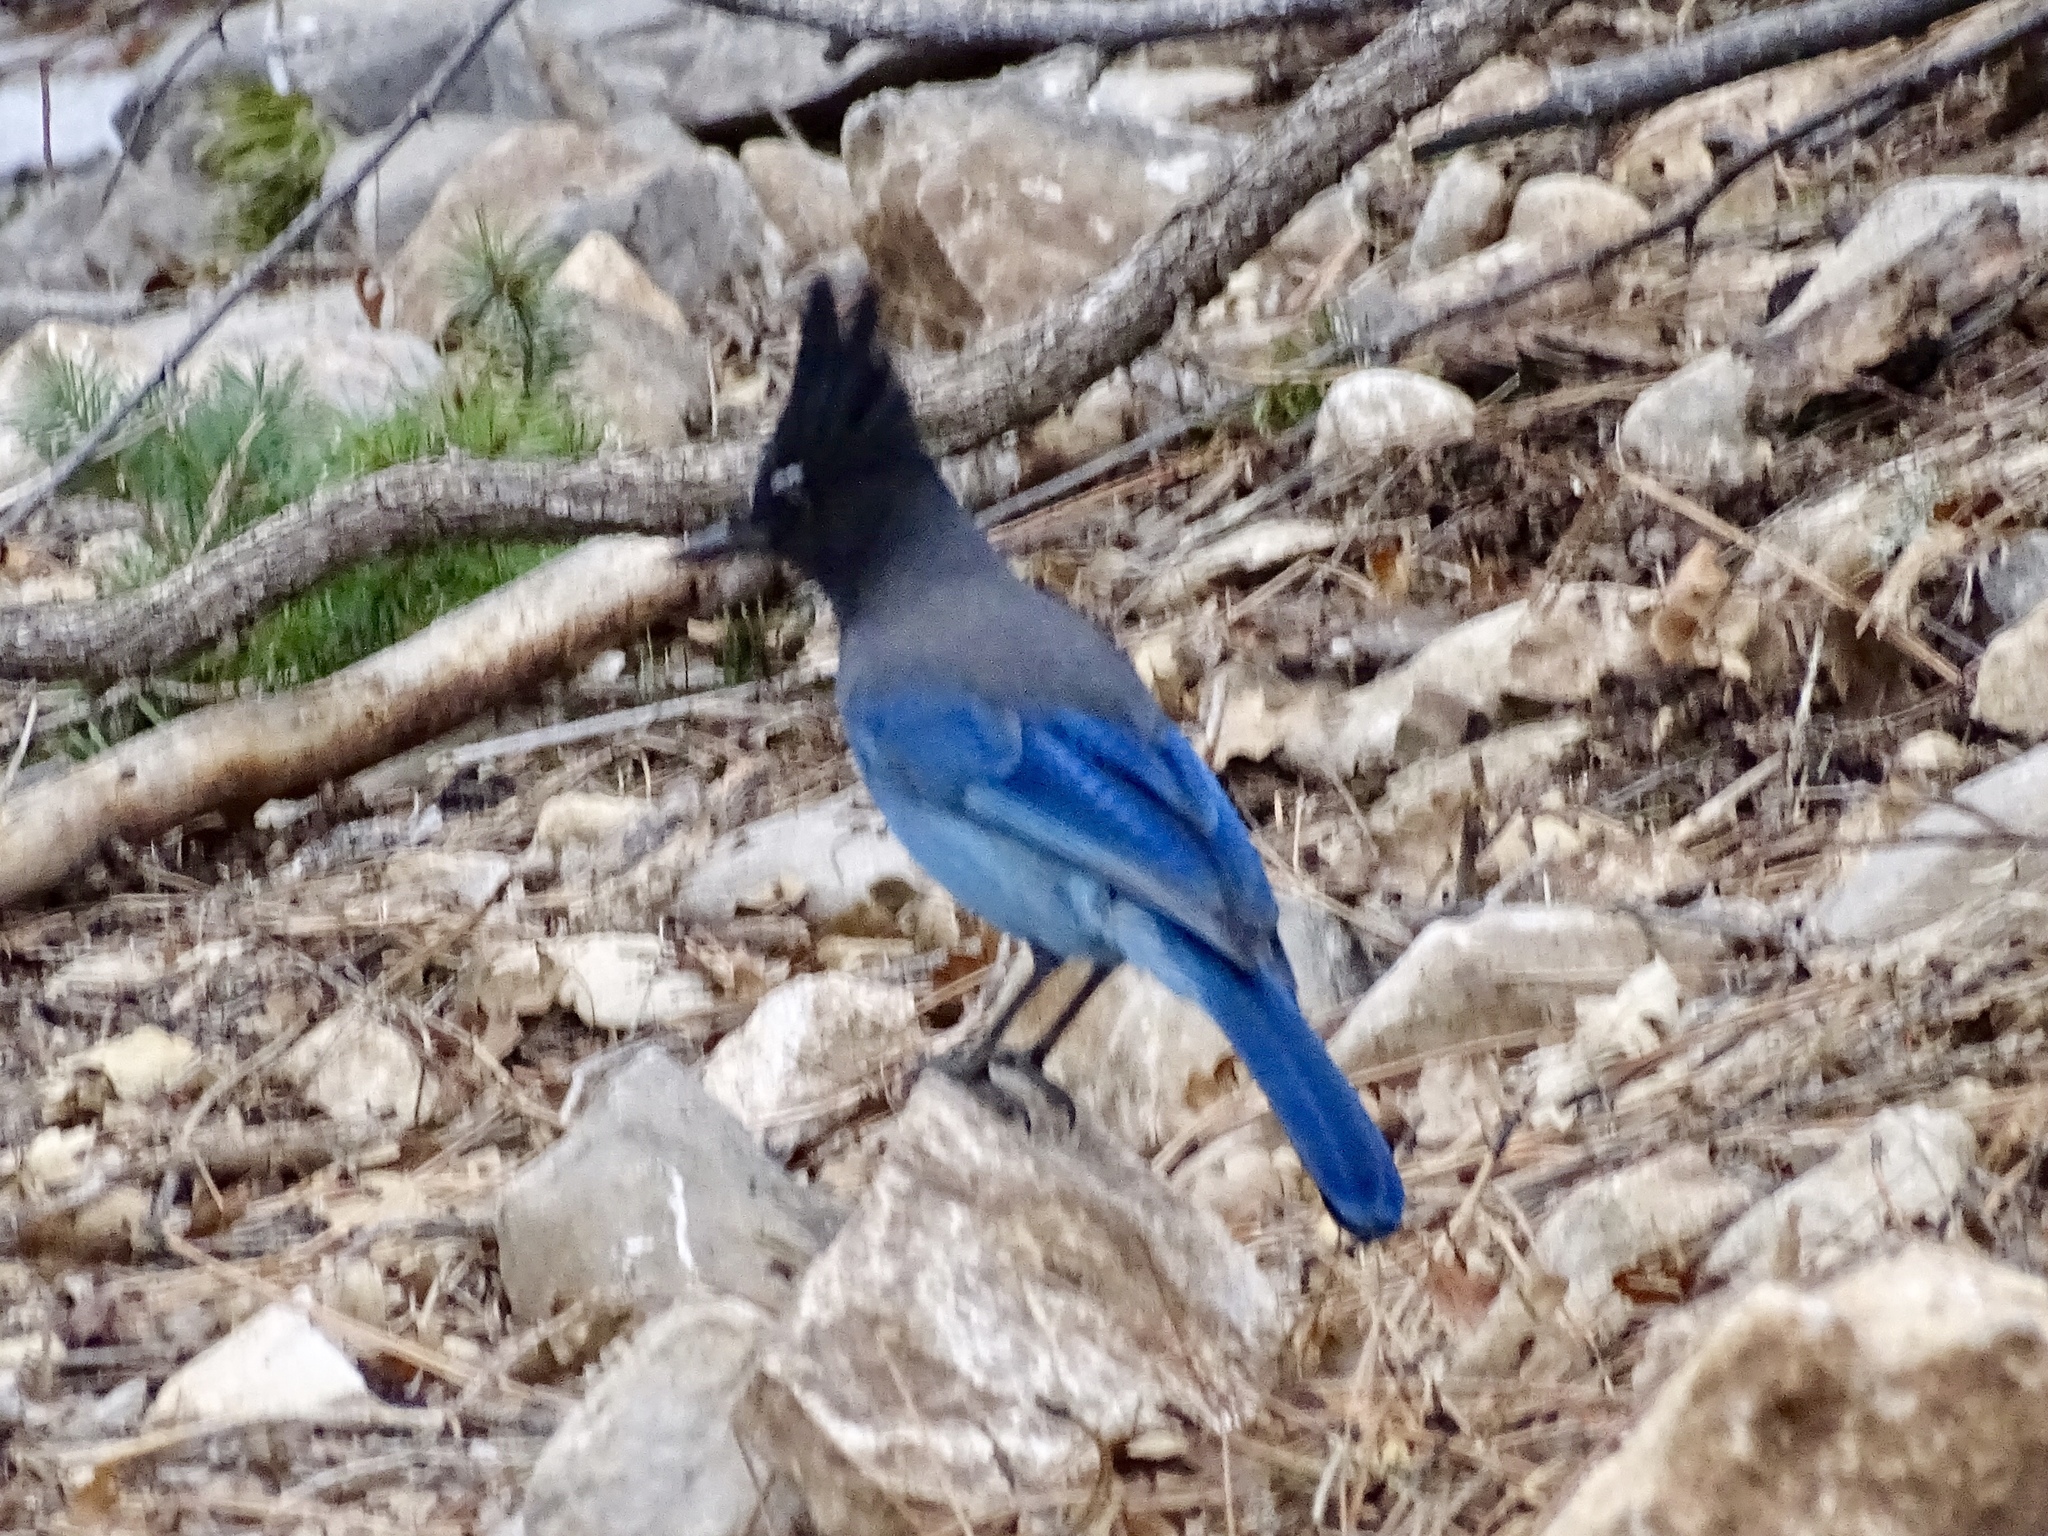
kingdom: Animalia
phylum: Chordata
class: Aves
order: Passeriformes
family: Corvidae
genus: Cyanocitta
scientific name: Cyanocitta stelleri
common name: Steller's jay
